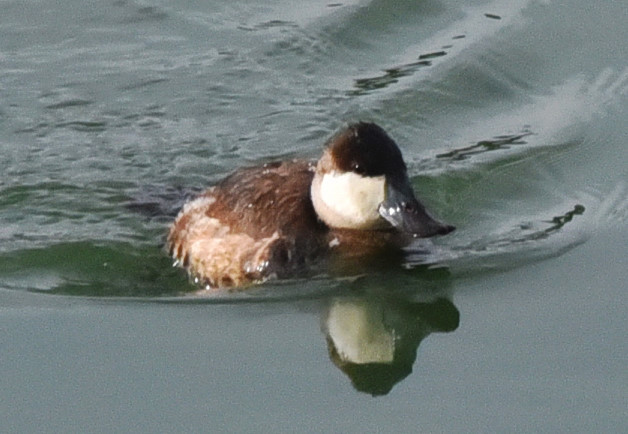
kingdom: Animalia
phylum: Chordata
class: Aves
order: Anseriformes
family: Anatidae
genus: Oxyura
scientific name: Oxyura jamaicensis
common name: Ruddy duck
